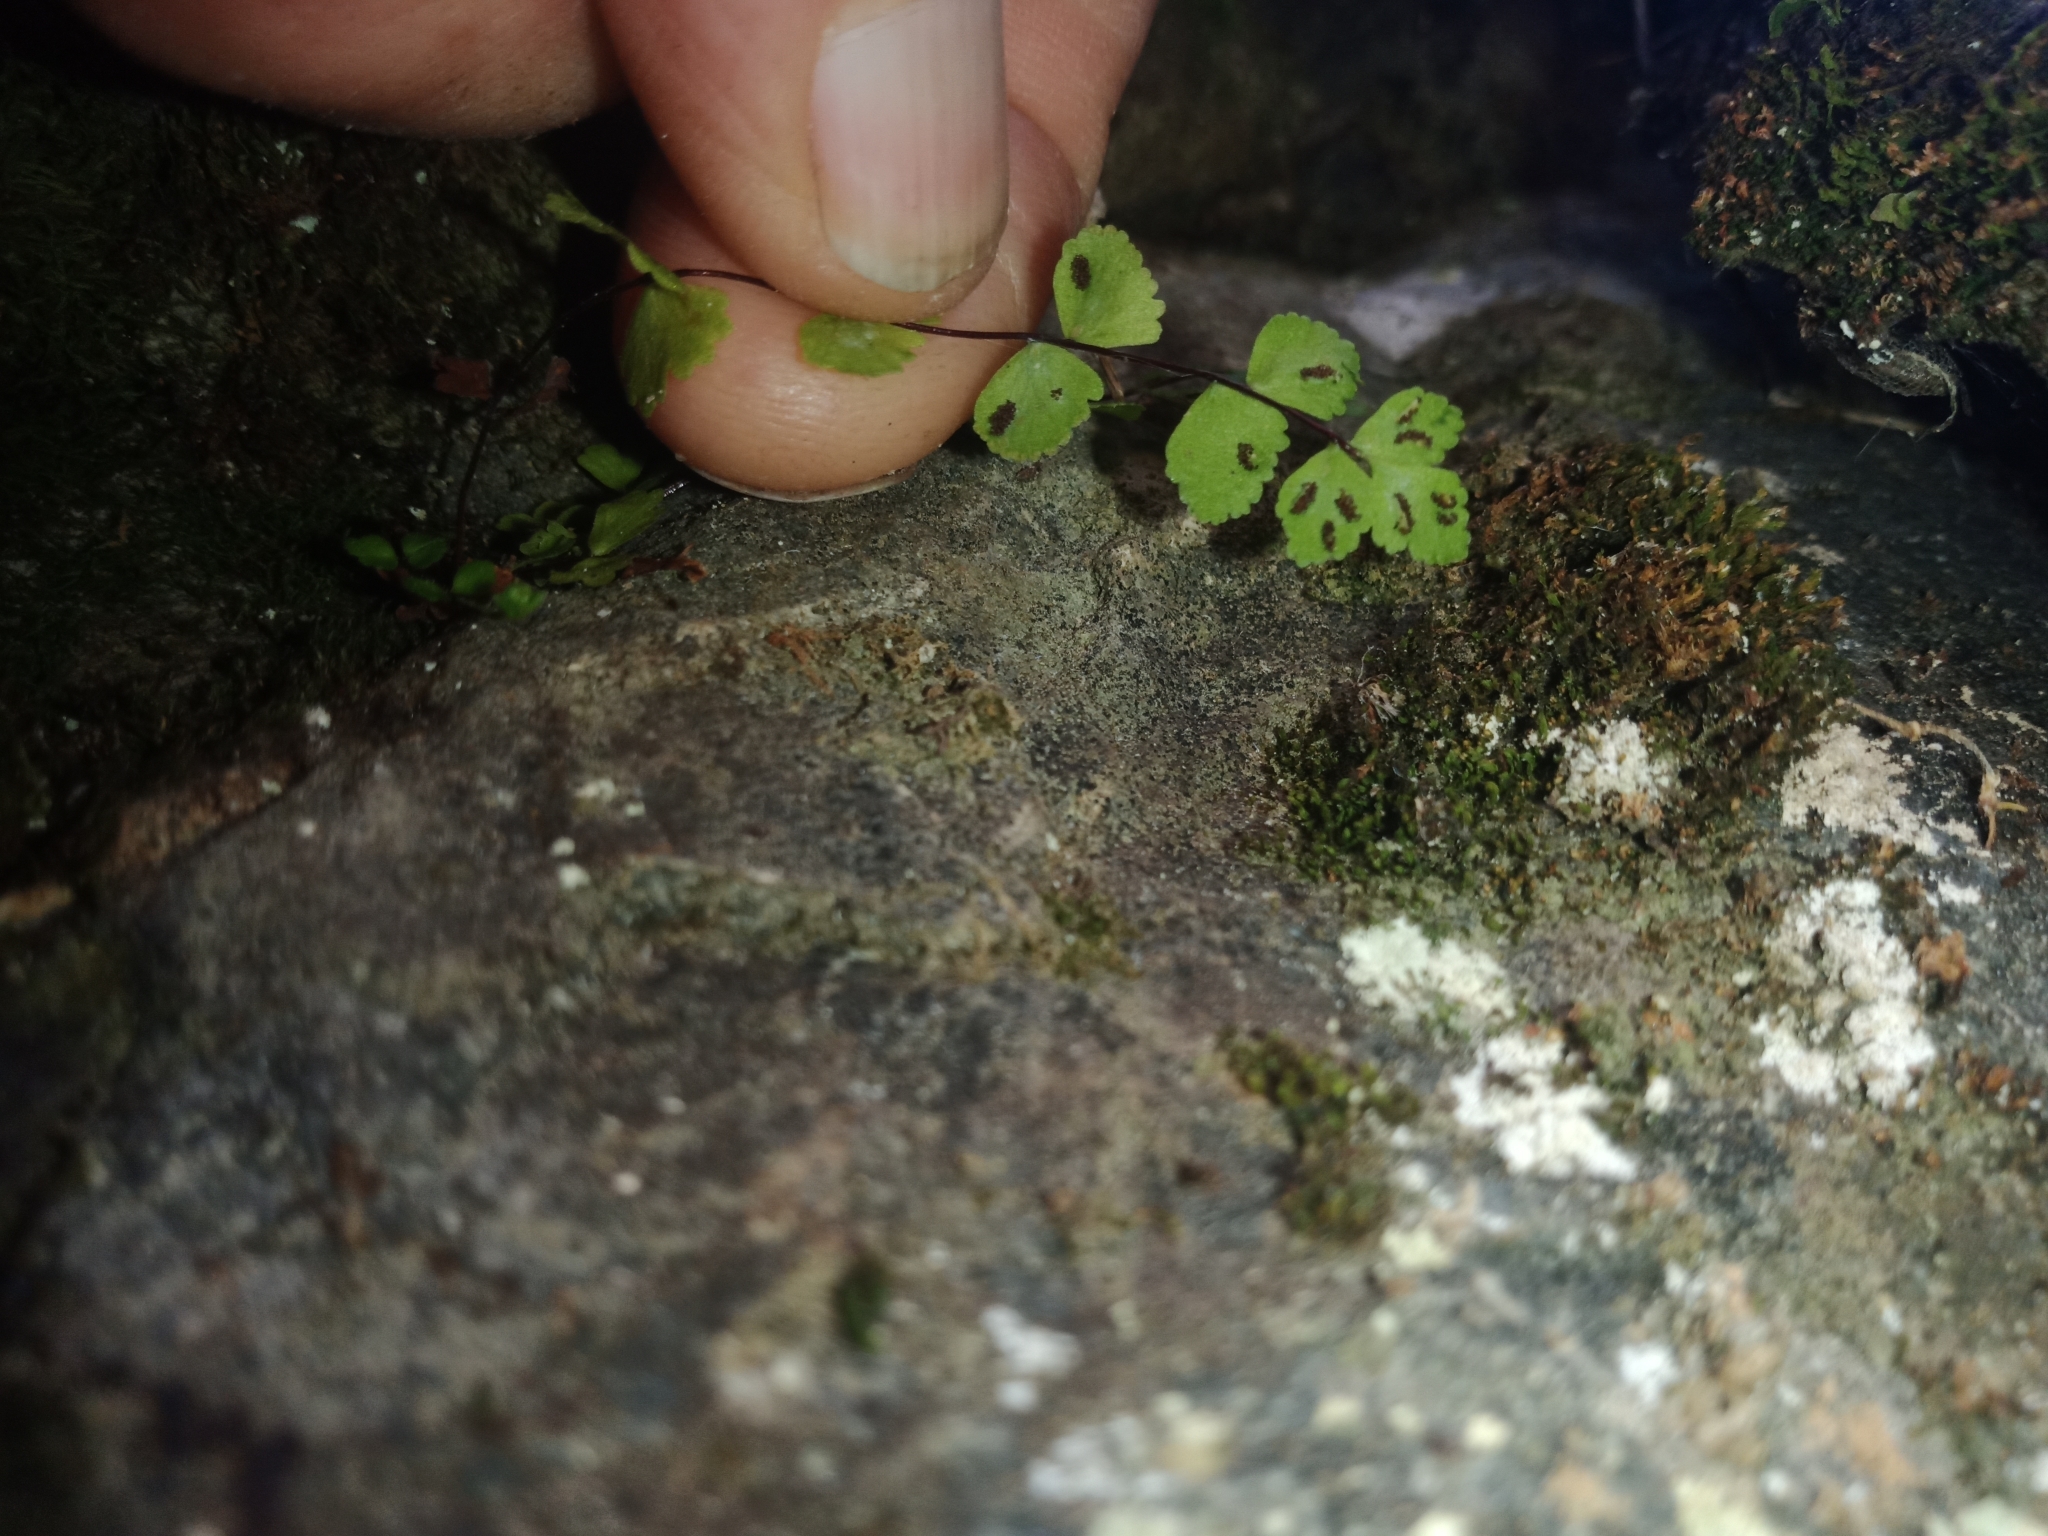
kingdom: Plantae
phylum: Tracheophyta
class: Polypodiopsida
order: Polypodiales
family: Aspleniaceae
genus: Asplenium
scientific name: Asplenium trichomanes
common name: Maidenhair spleenwort
